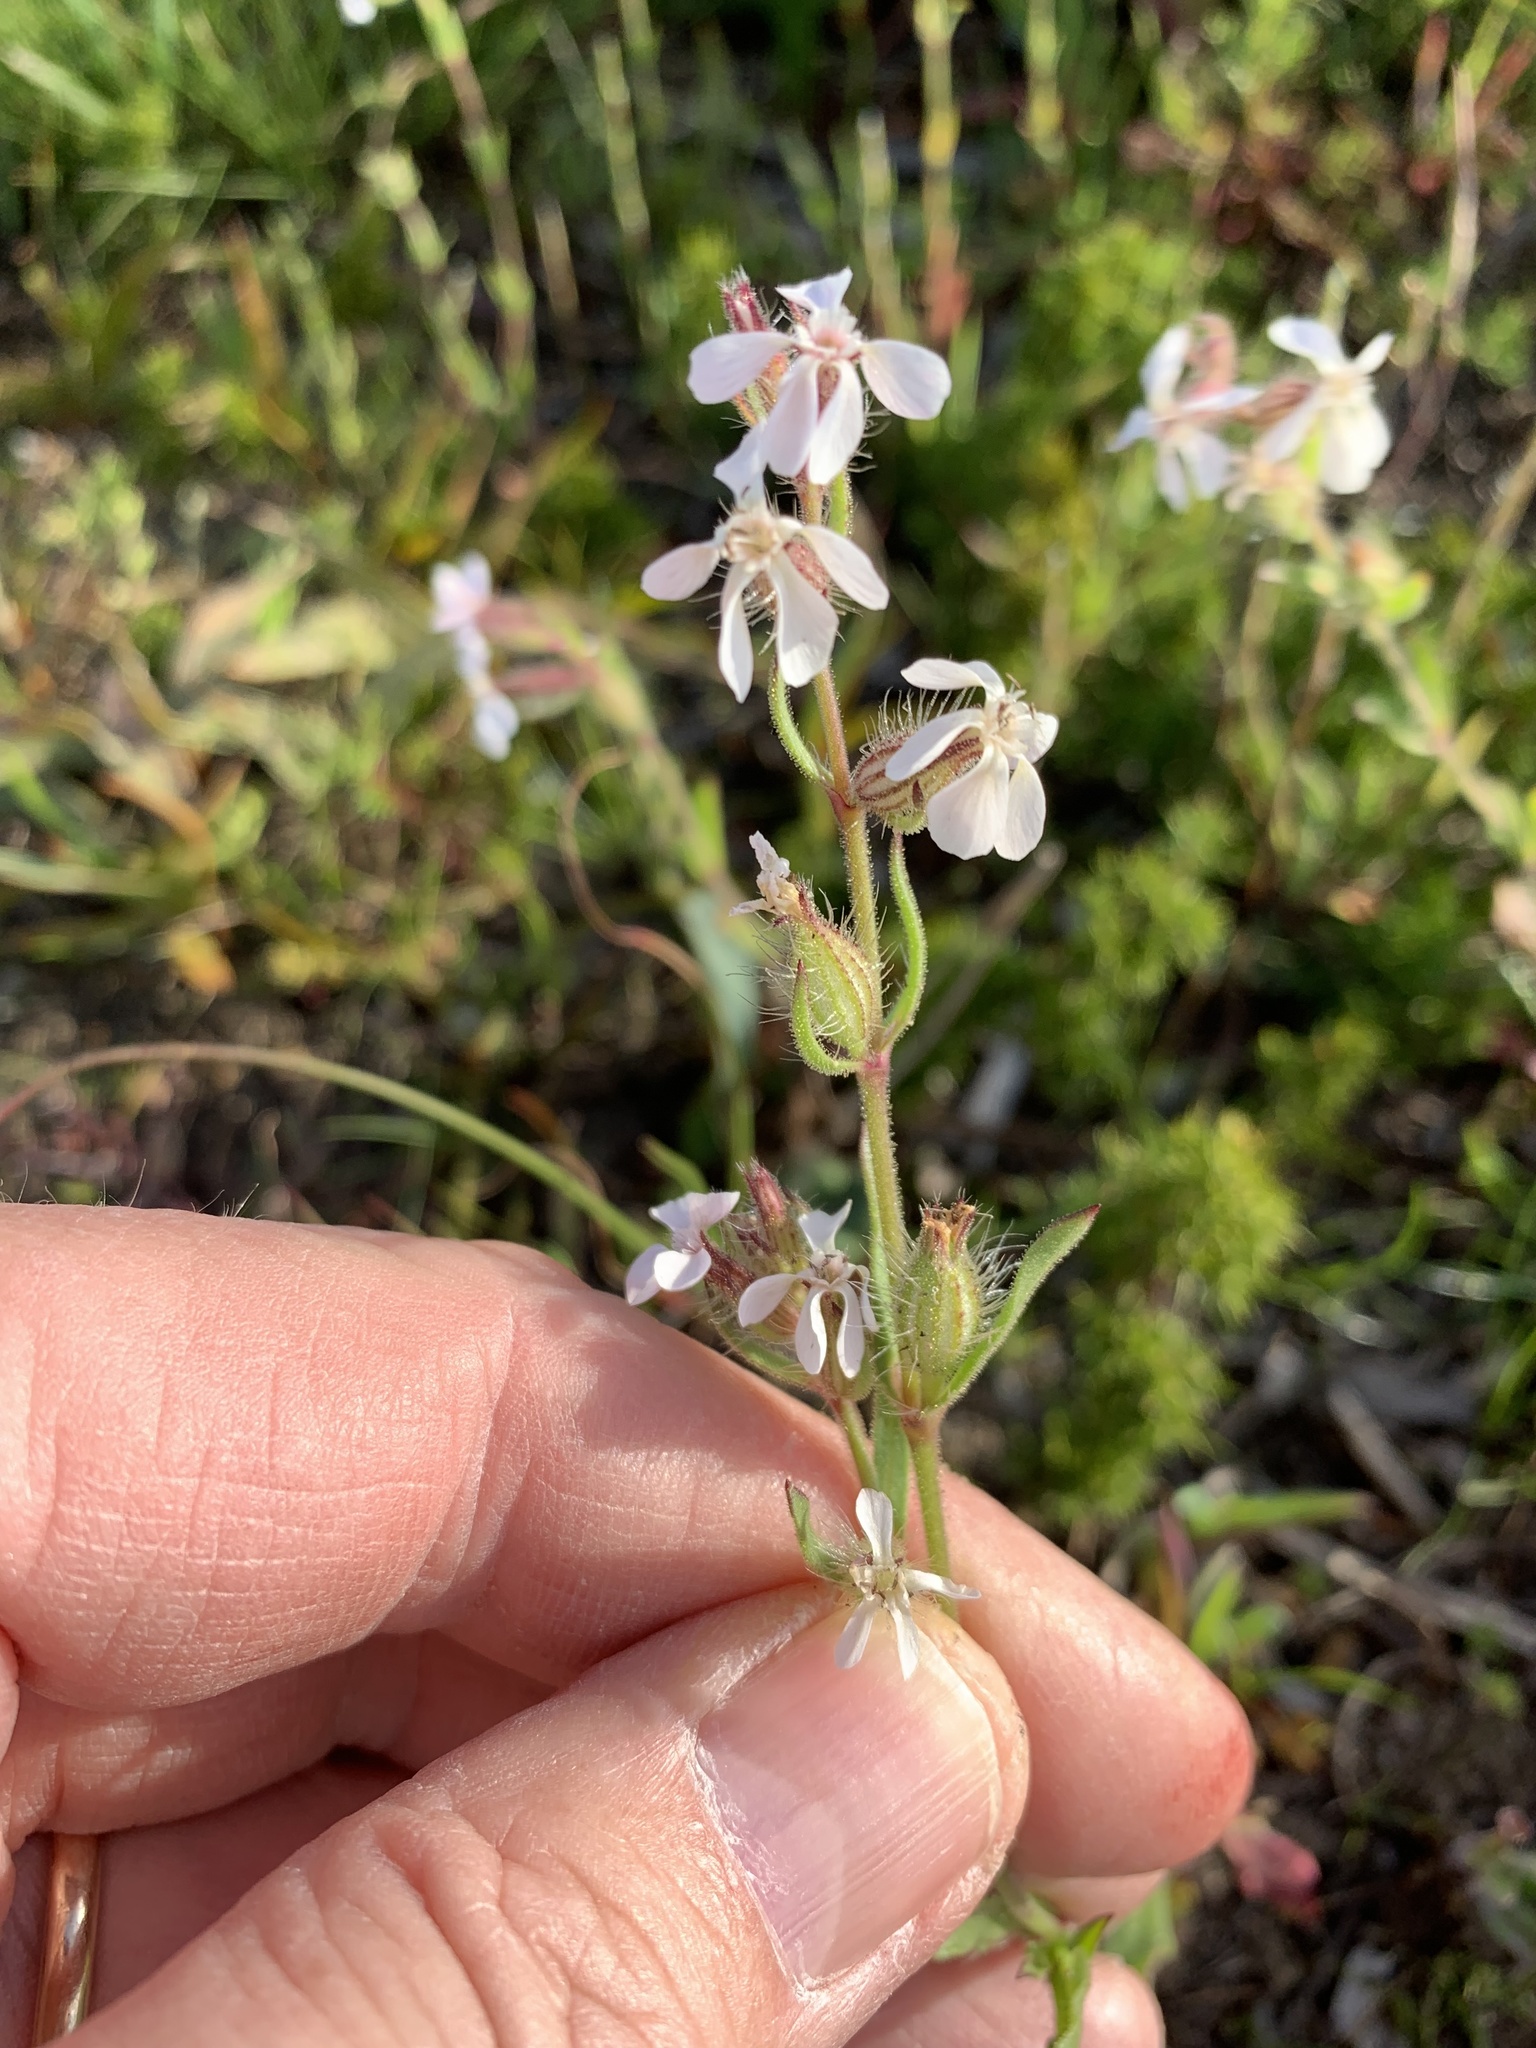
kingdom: Plantae
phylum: Tracheophyta
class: Magnoliopsida
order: Caryophyllales
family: Caryophyllaceae
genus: Silene
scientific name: Silene gallica
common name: Small-flowered catchfly
